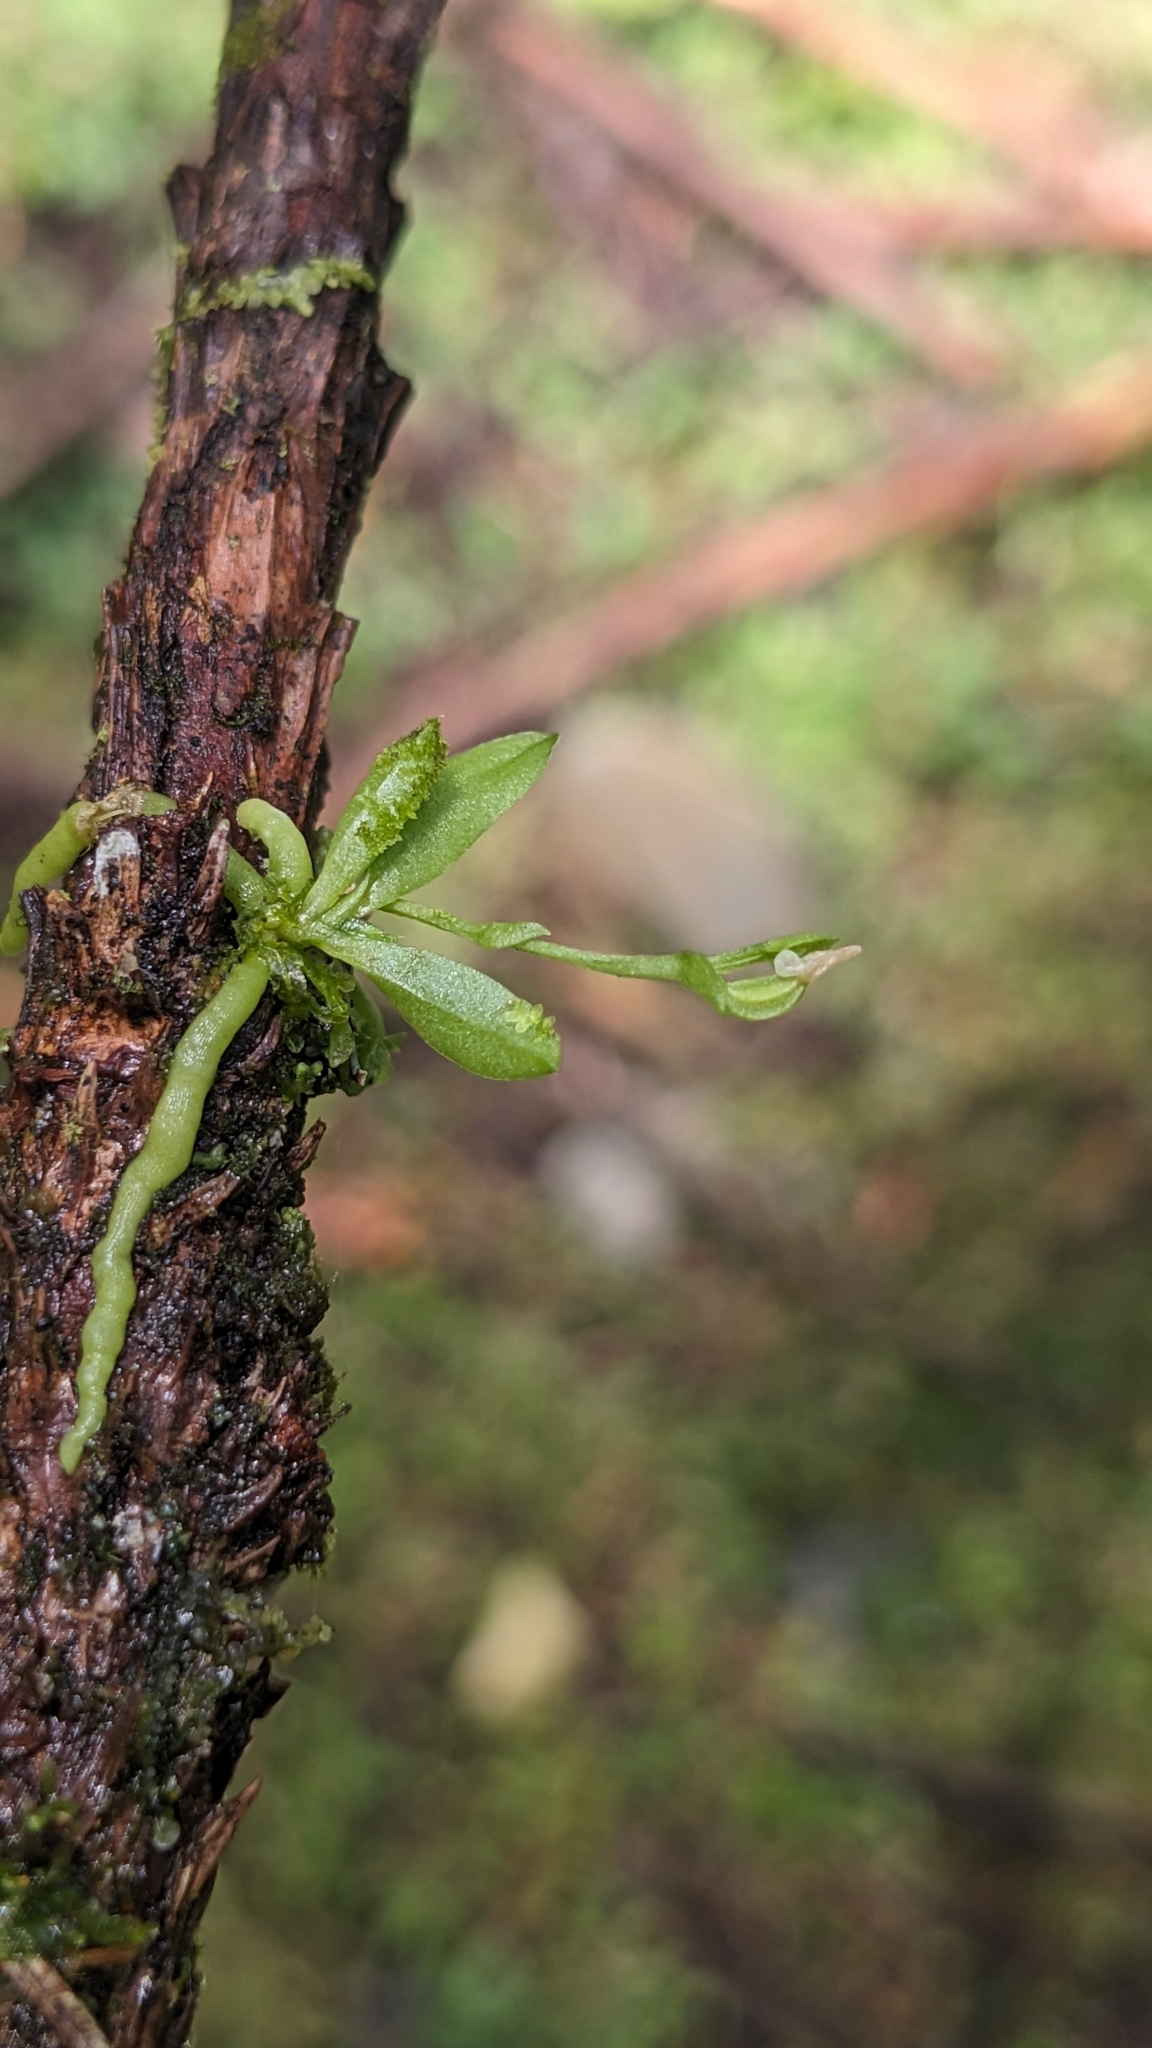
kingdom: Plantae
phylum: Tracheophyta
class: Liliopsida
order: Asparagales
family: Orchidaceae
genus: Taeniophyllum
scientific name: Taeniophyllum compactum
